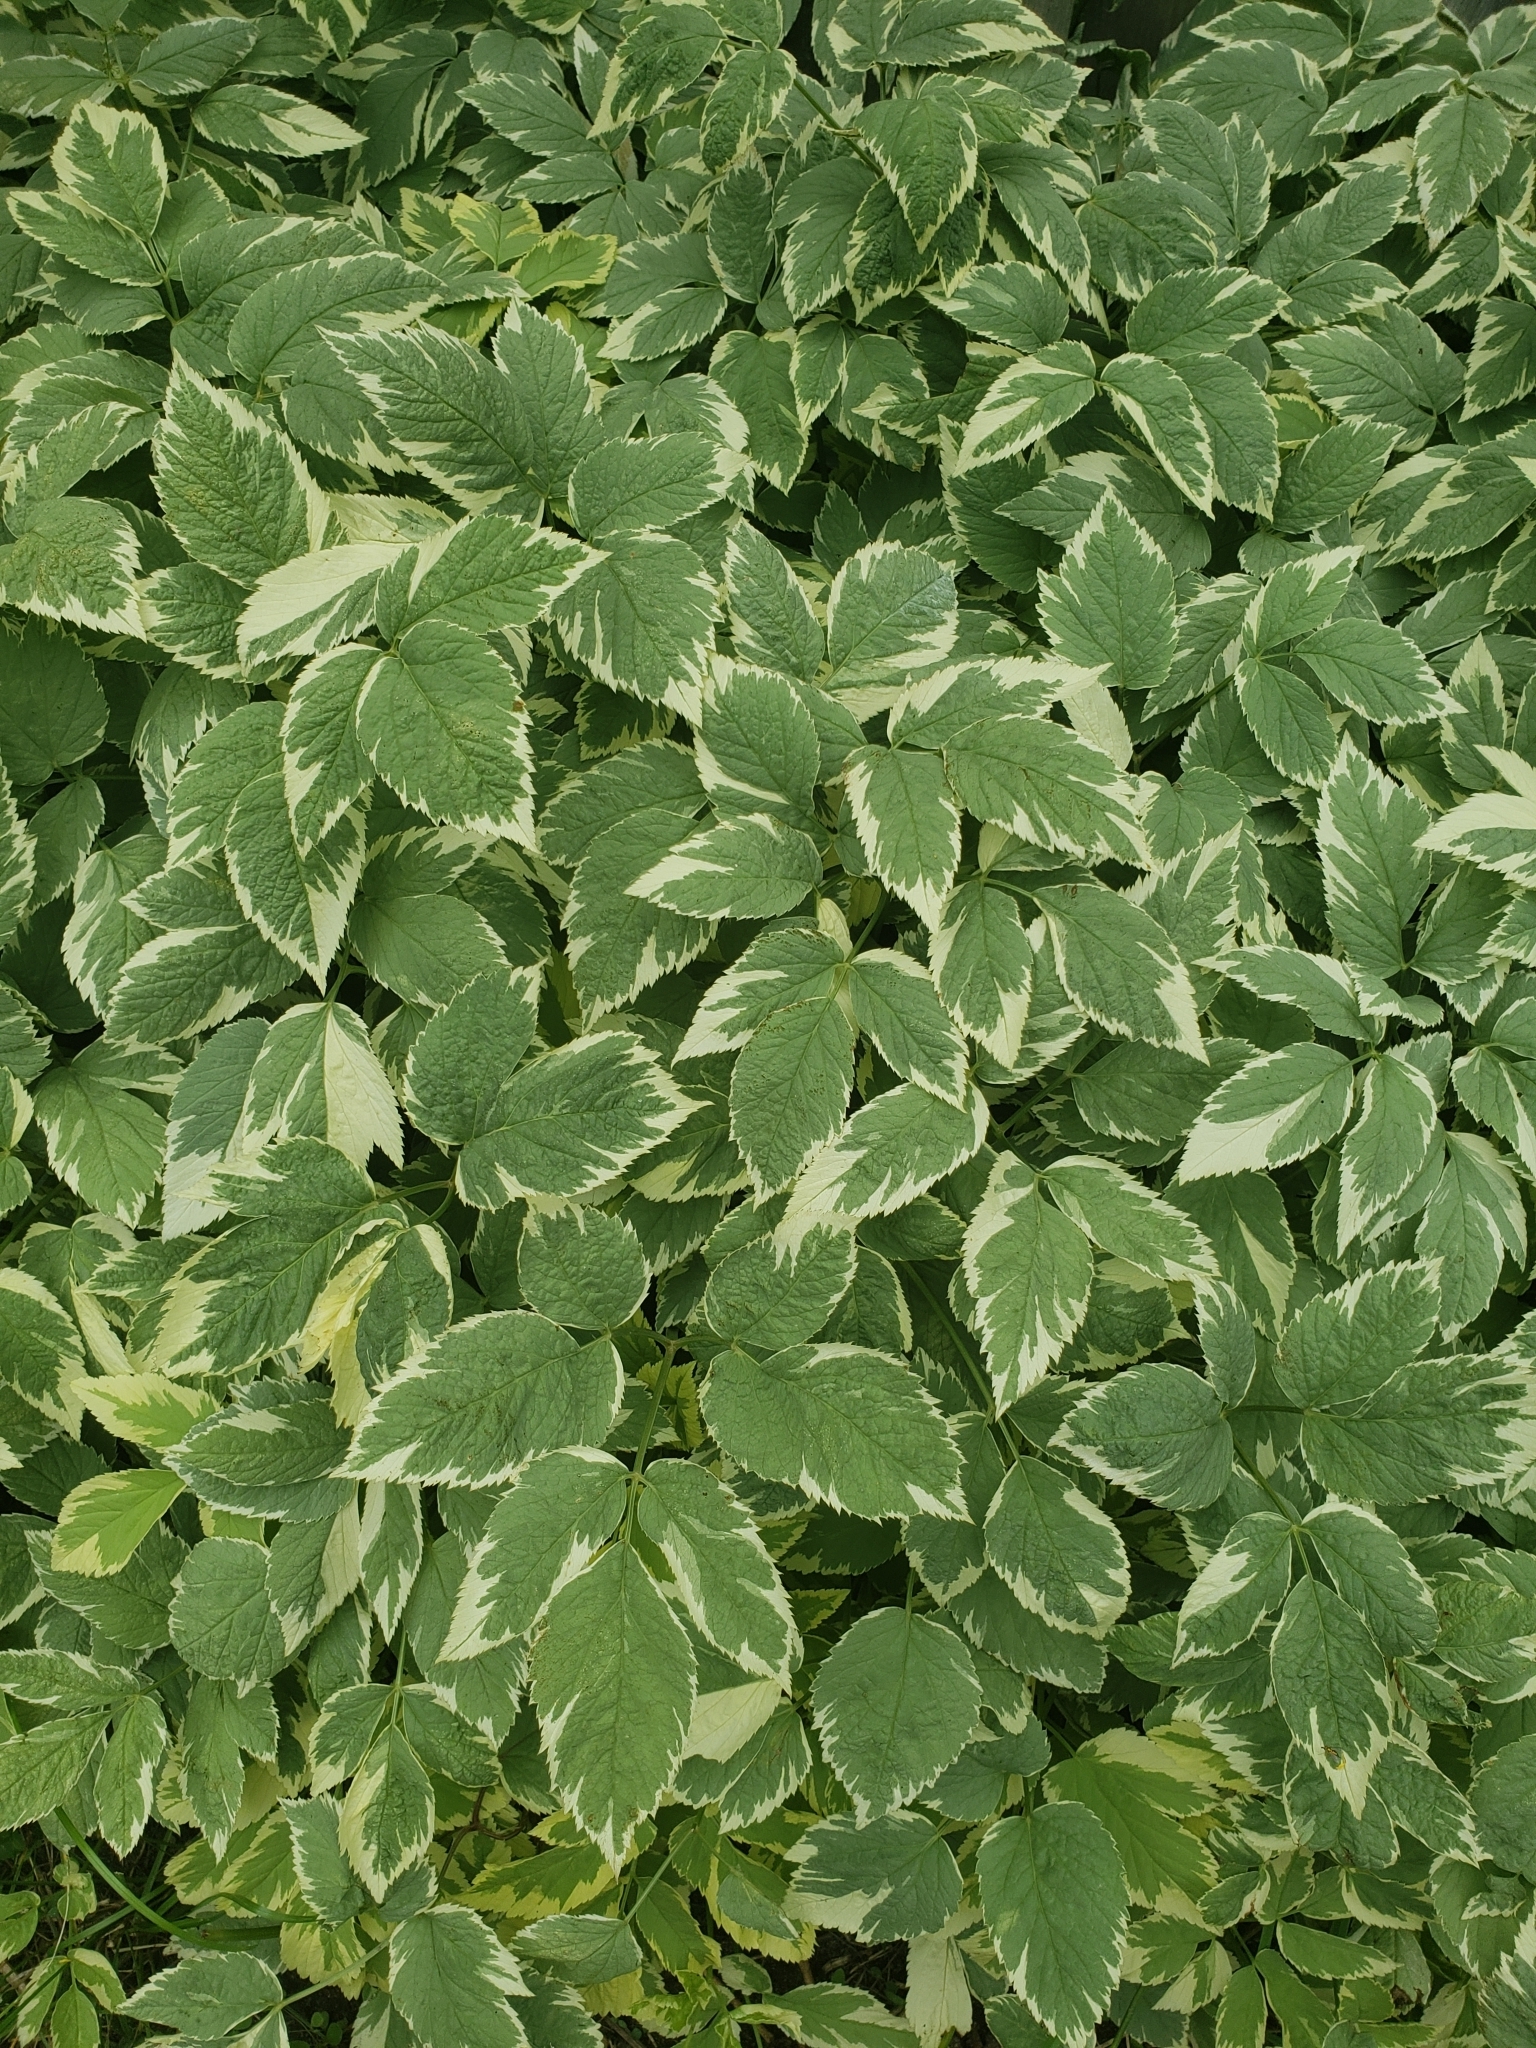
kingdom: Plantae
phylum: Tracheophyta
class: Magnoliopsida
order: Apiales
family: Apiaceae
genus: Aegopodium
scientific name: Aegopodium podagraria
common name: Ground-elder
